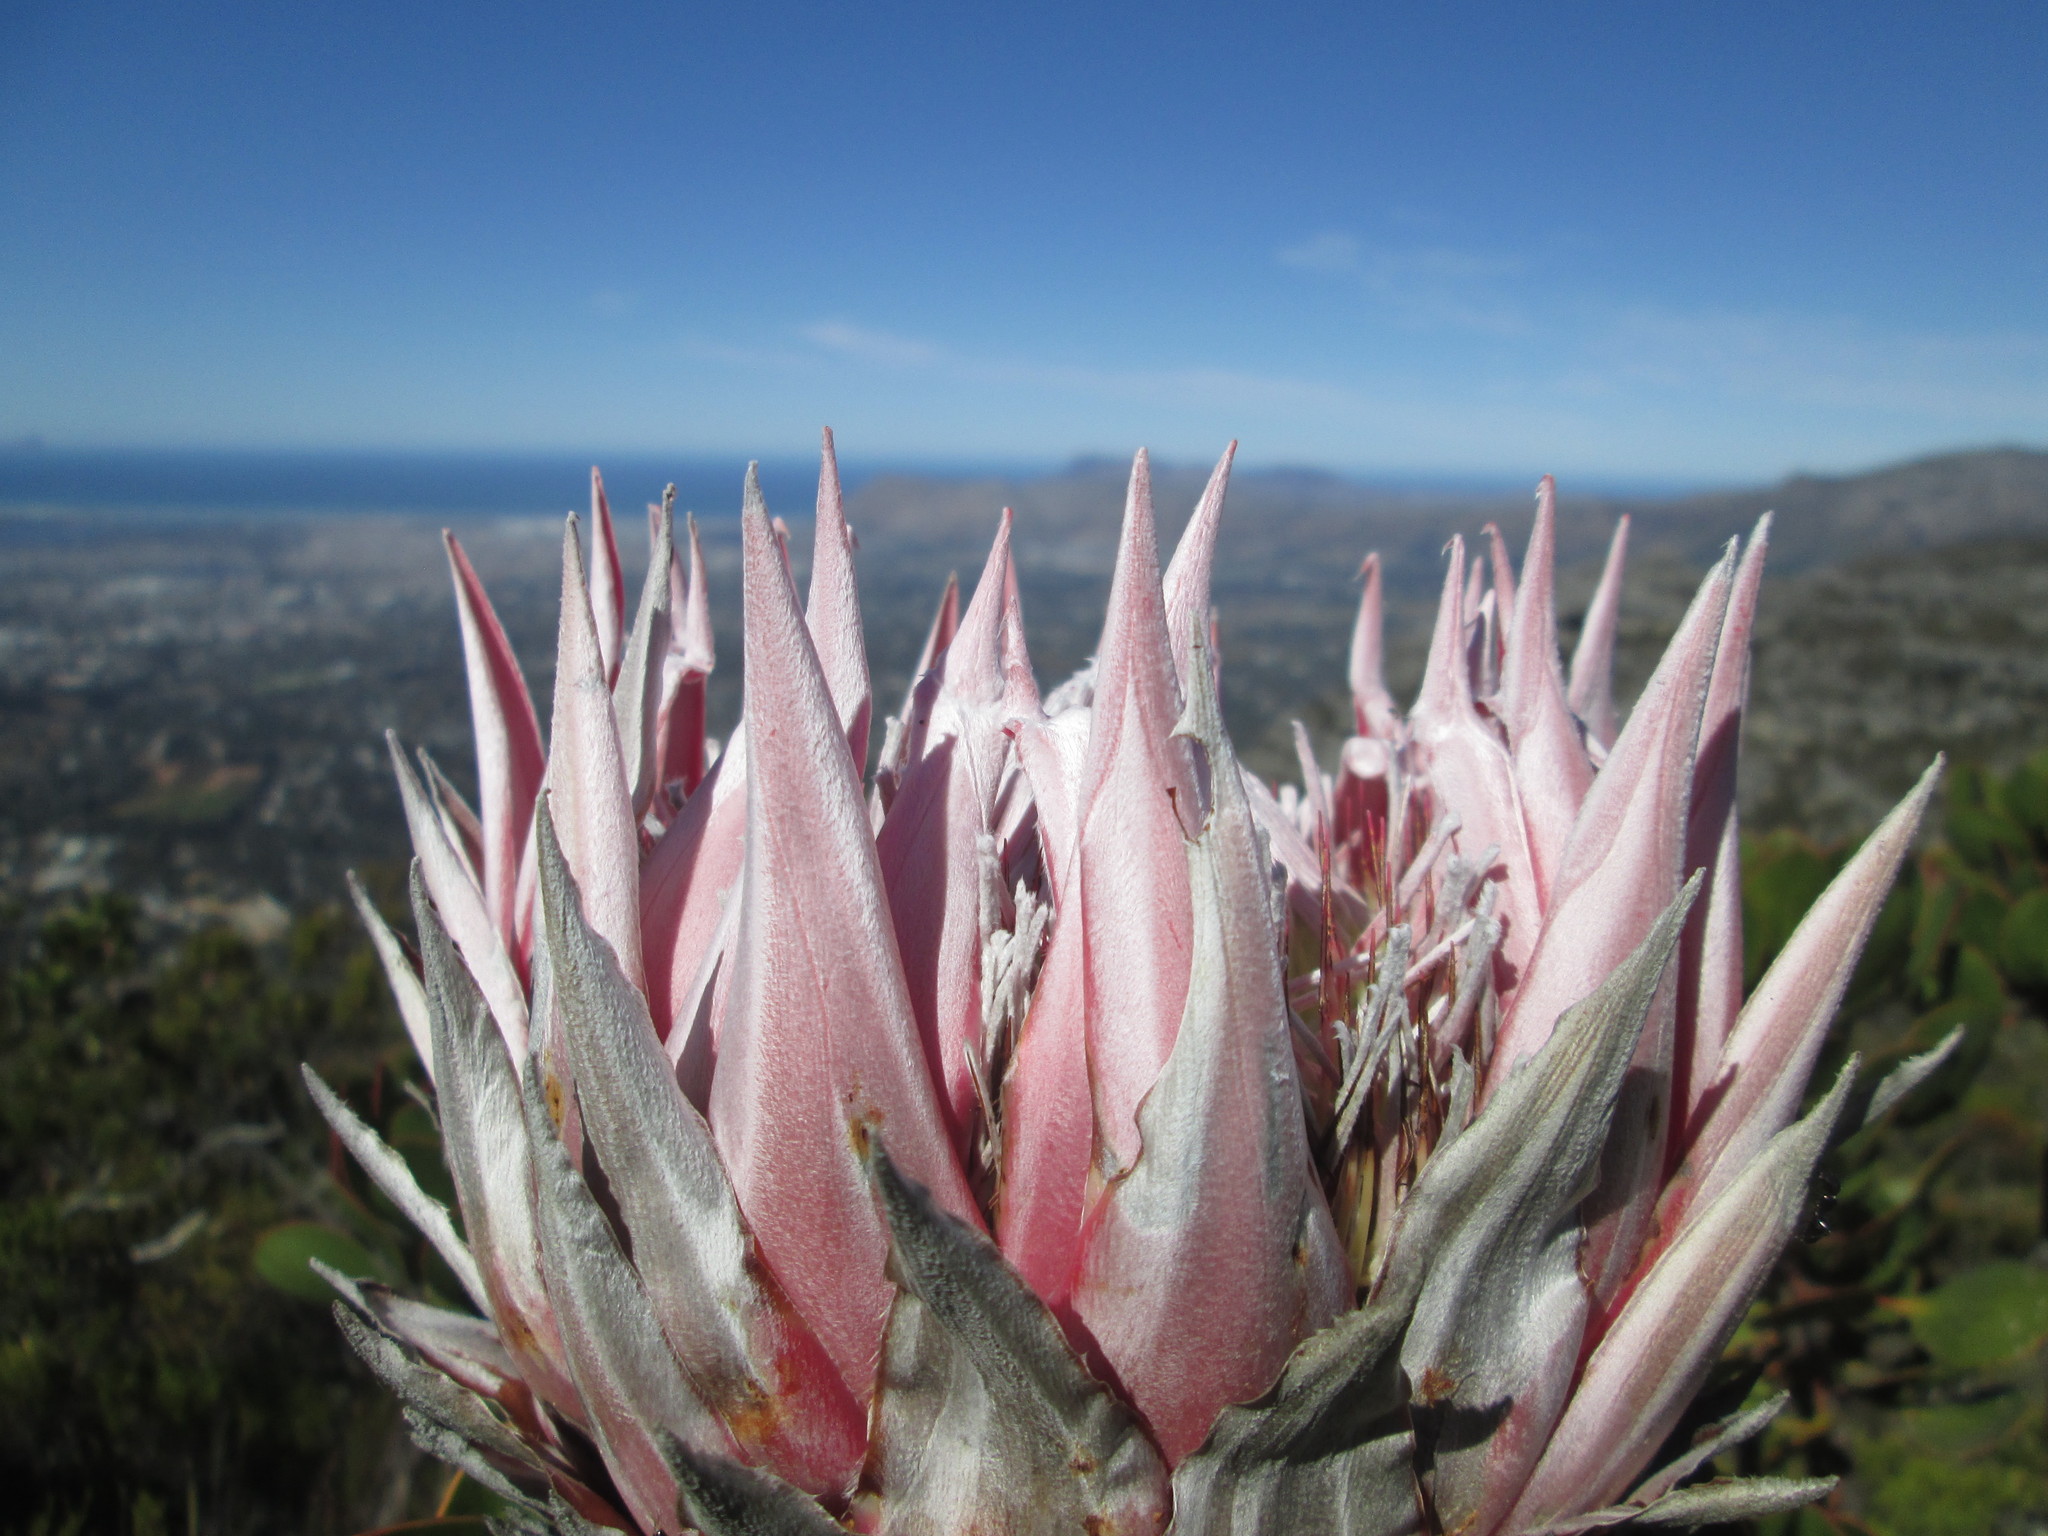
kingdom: Plantae
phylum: Tracheophyta
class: Magnoliopsida
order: Proteales
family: Proteaceae
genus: Protea
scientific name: Protea cynaroides
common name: King protea
